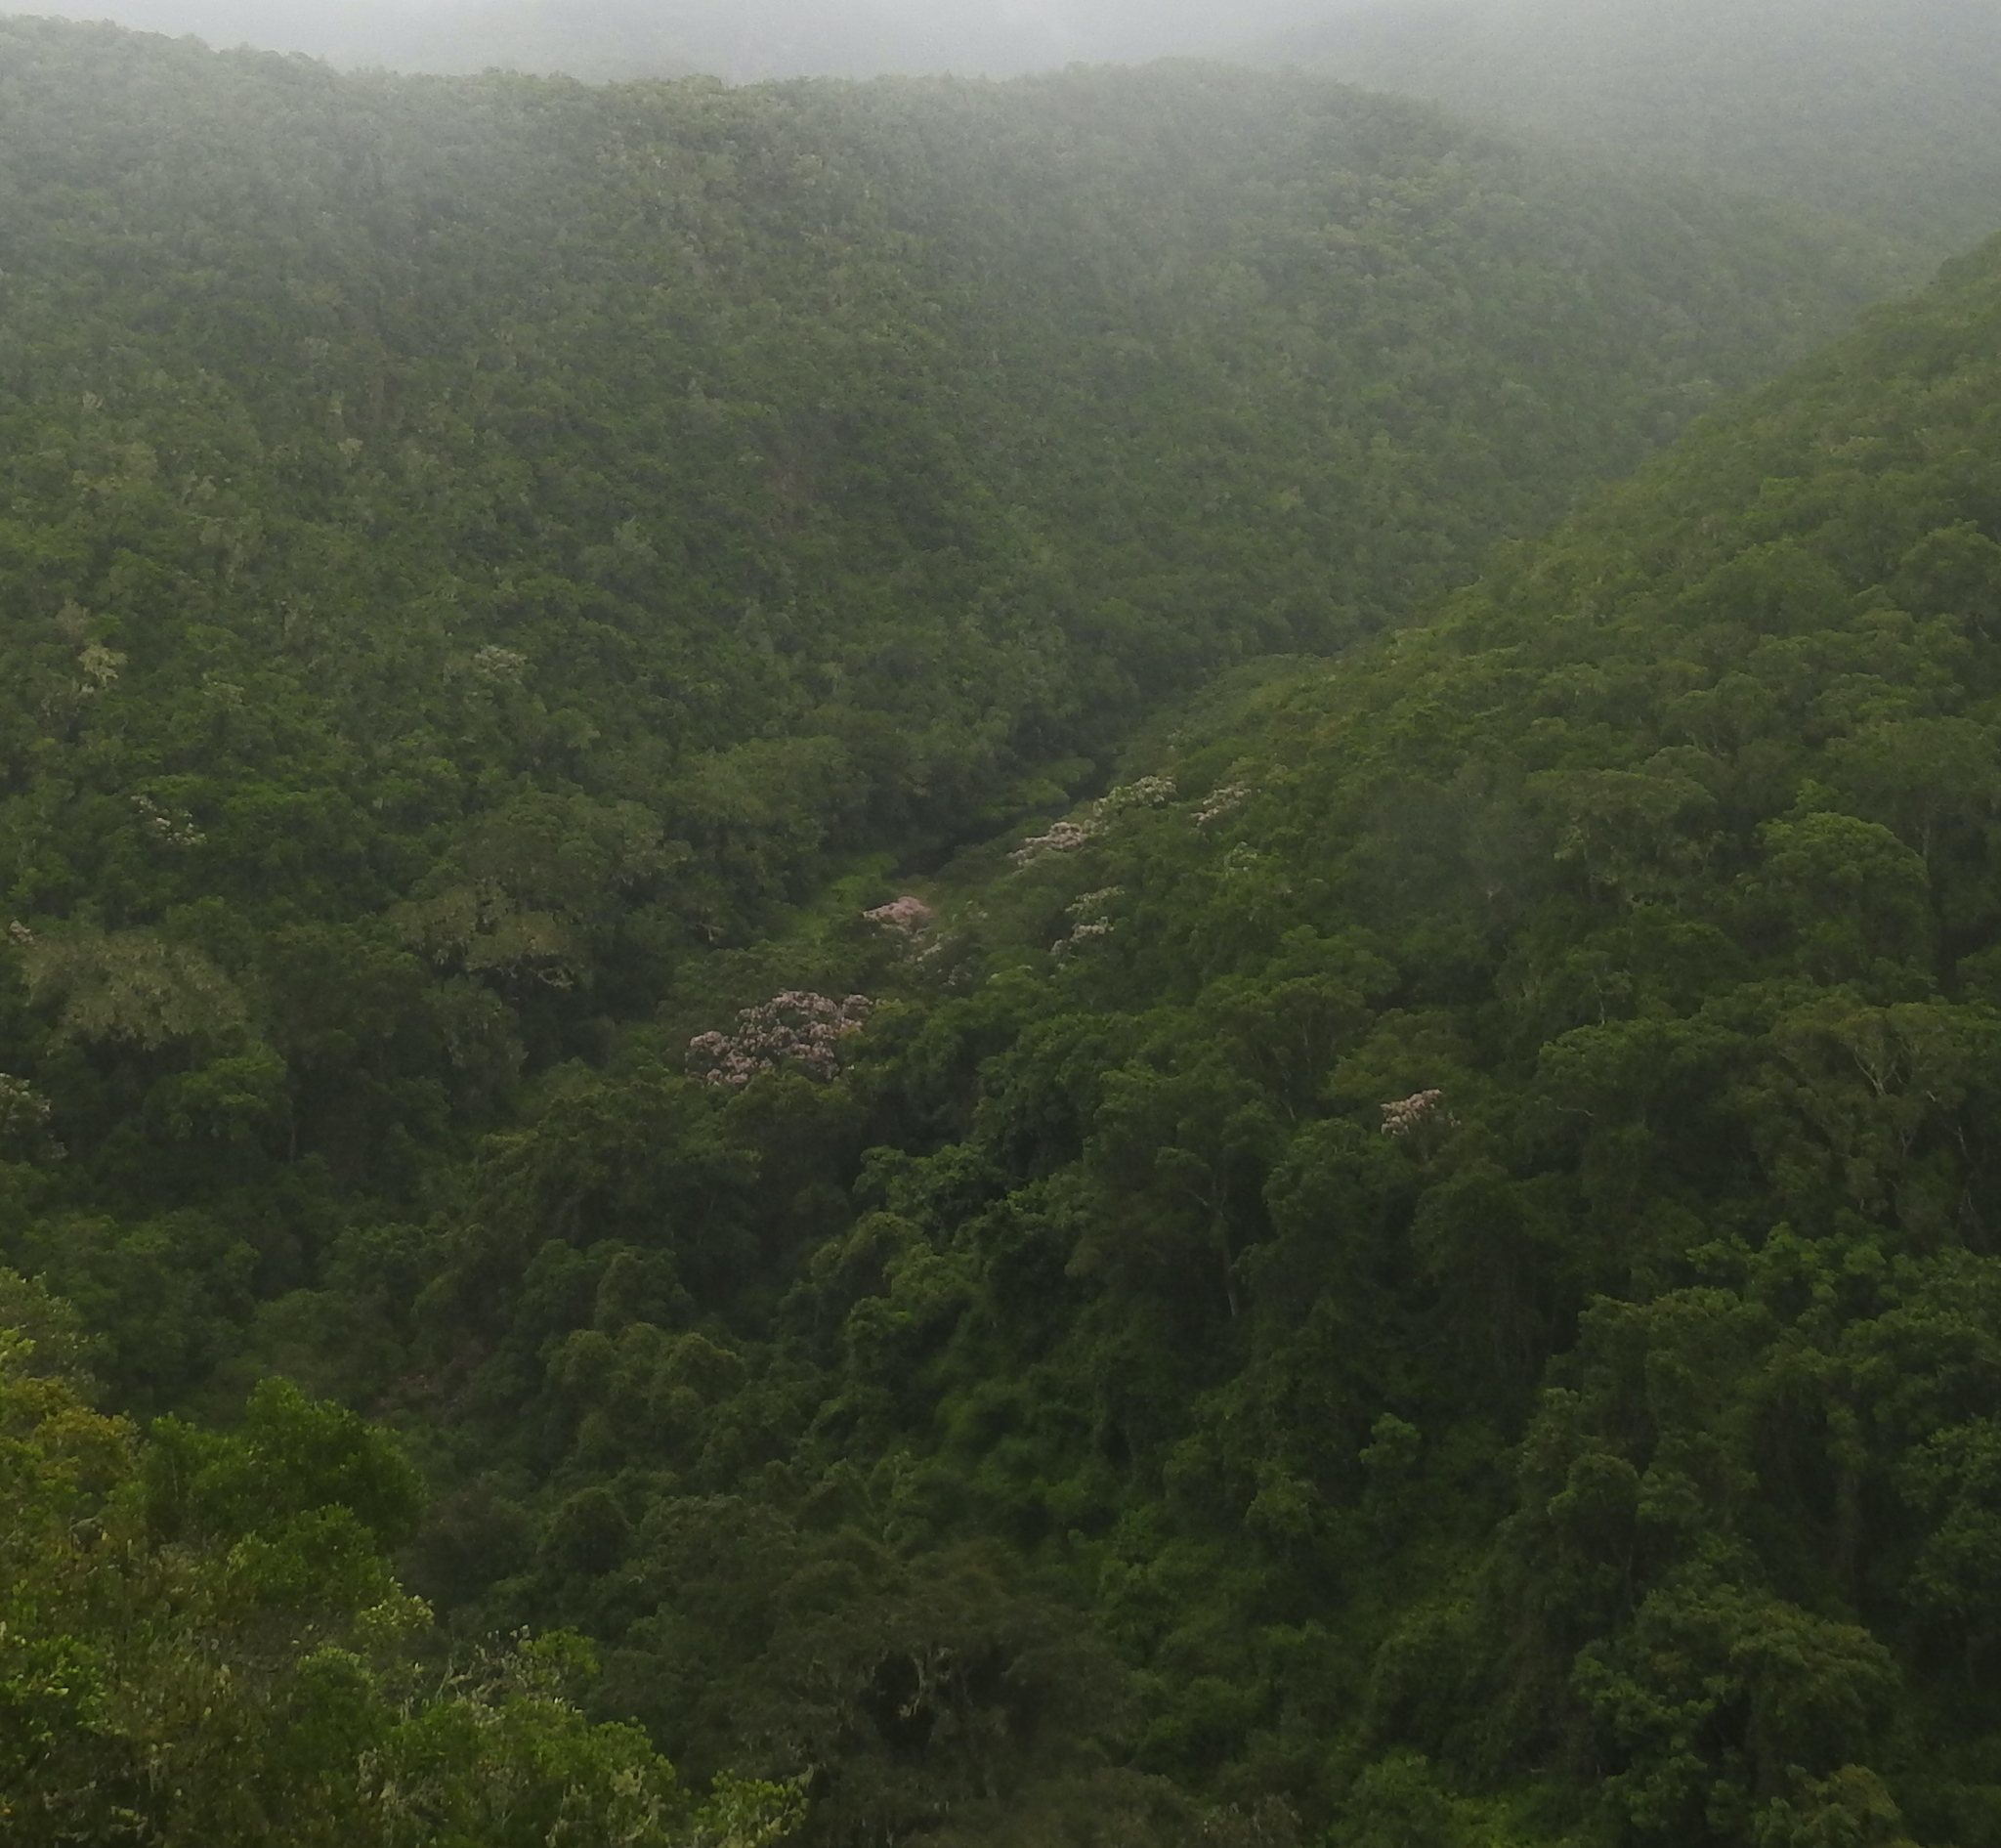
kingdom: Plantae
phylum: Tracheophyta
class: Magnoliopsida
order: Sapindales
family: Rutaceae
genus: Calodendrum
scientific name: Calodendrum capense
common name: Cape chestnut
